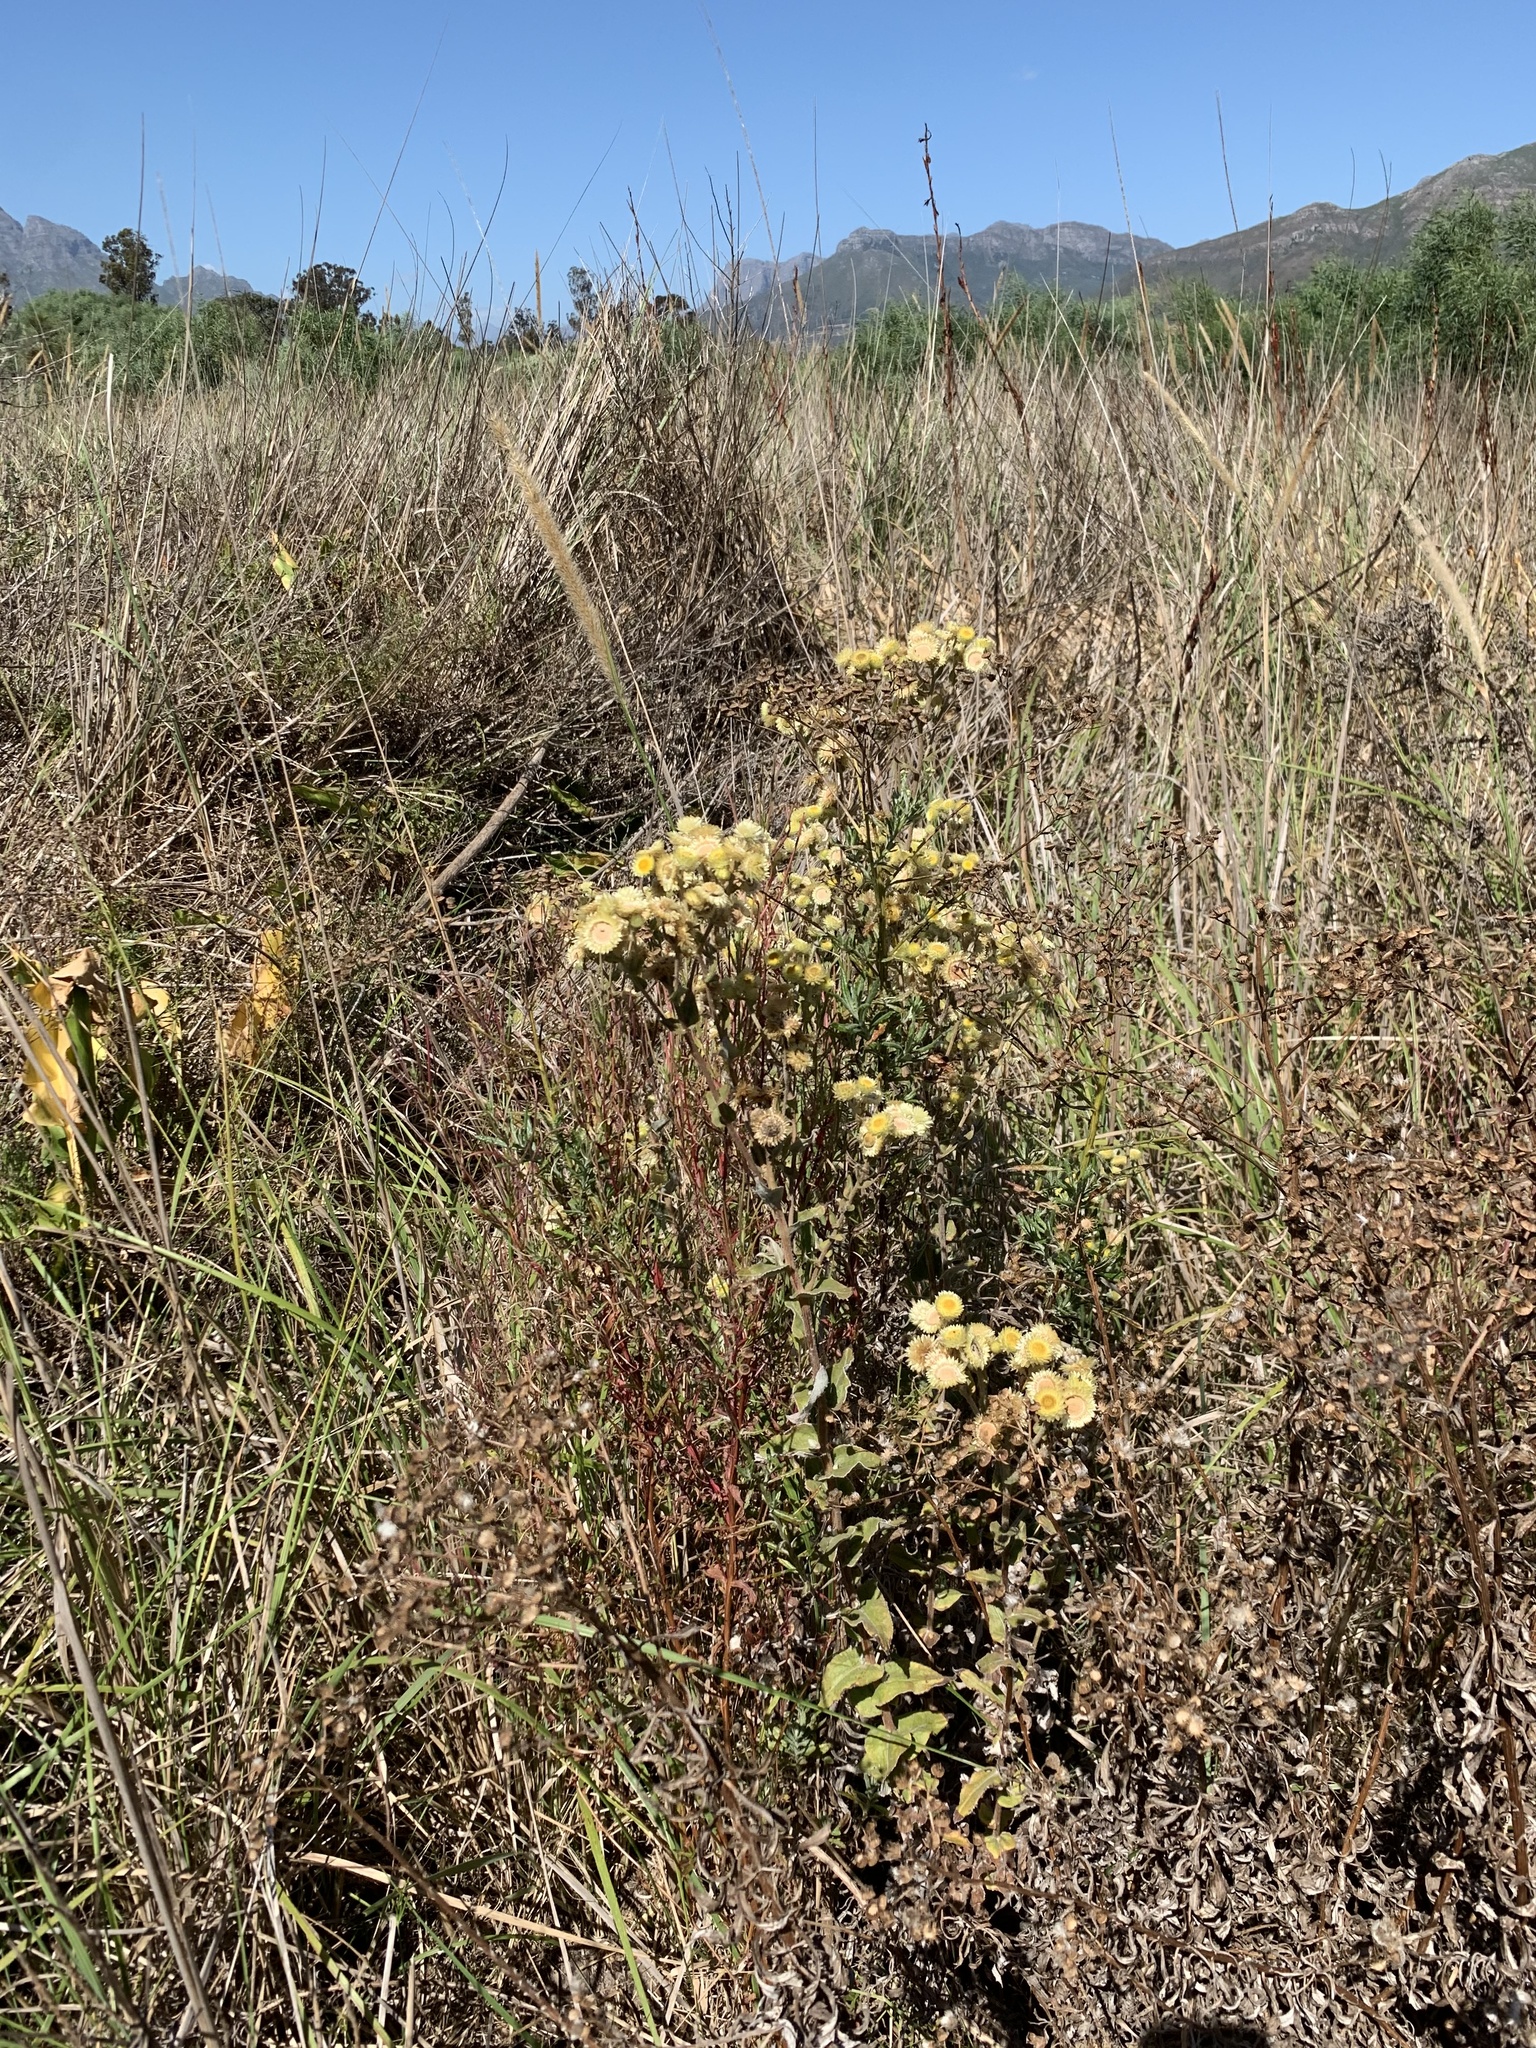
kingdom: Plantae
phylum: Tracheophyta
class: Magnoliopsida
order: Asterales
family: Asteraceae
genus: Helichrysum
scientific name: Helichrysum foetidum
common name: Stinking everlasting
